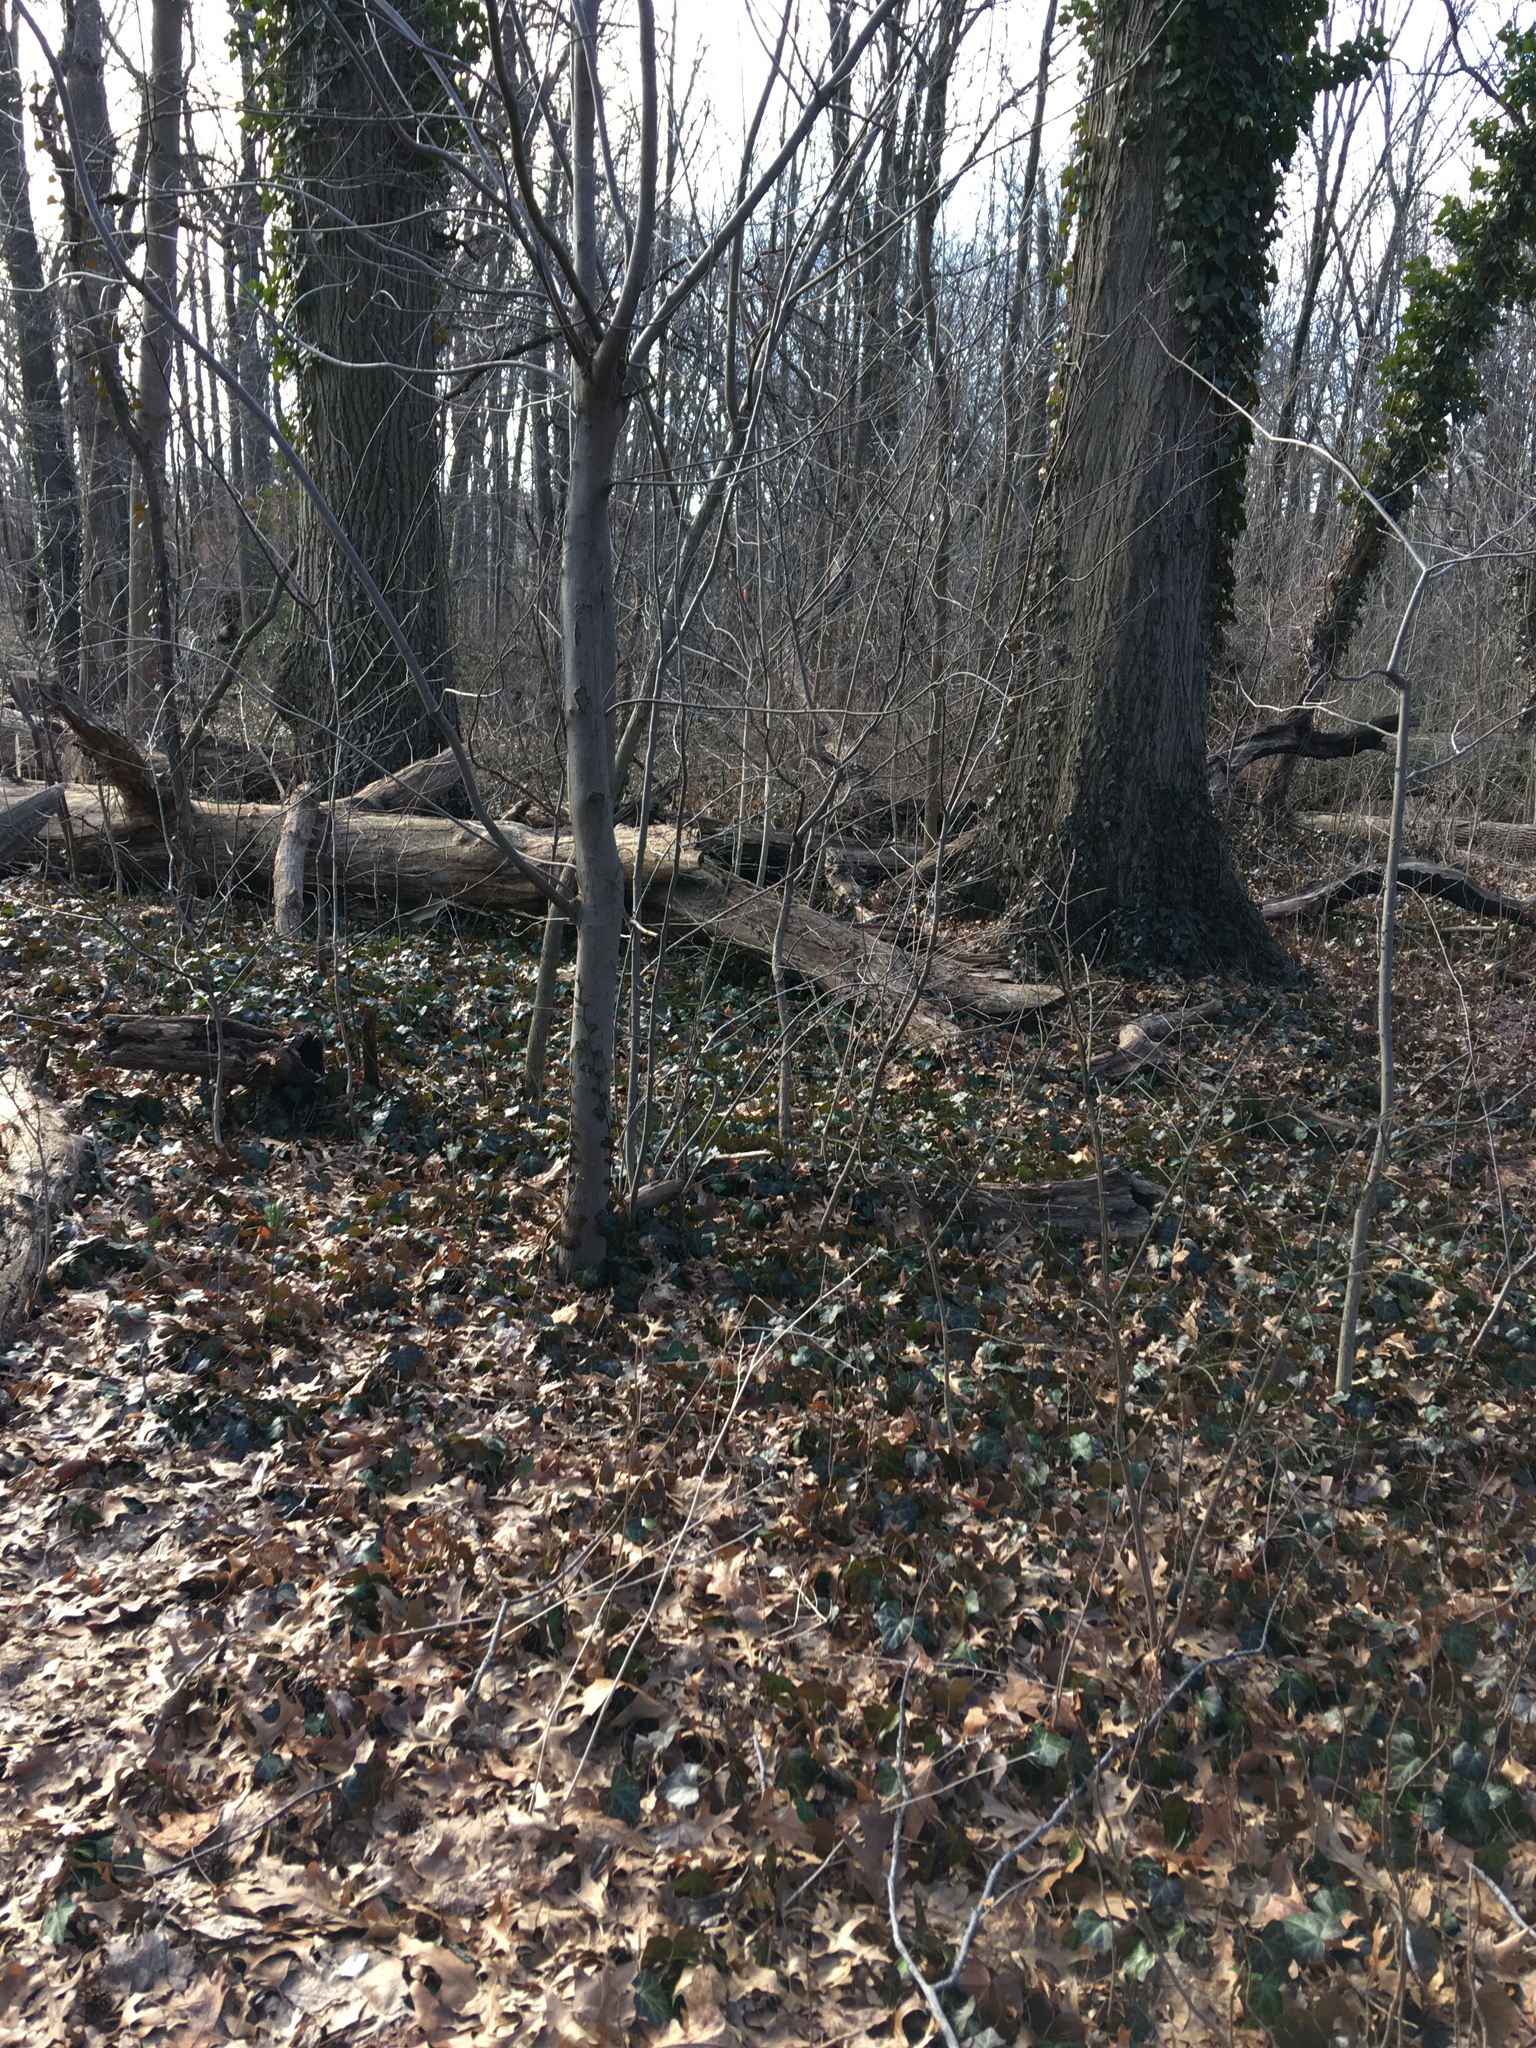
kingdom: Plantae
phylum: Tracheophyta
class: Magnoliopsida
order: Apiales
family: Araliaceae
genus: Hedera
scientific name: Hedera helix
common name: Ivy
